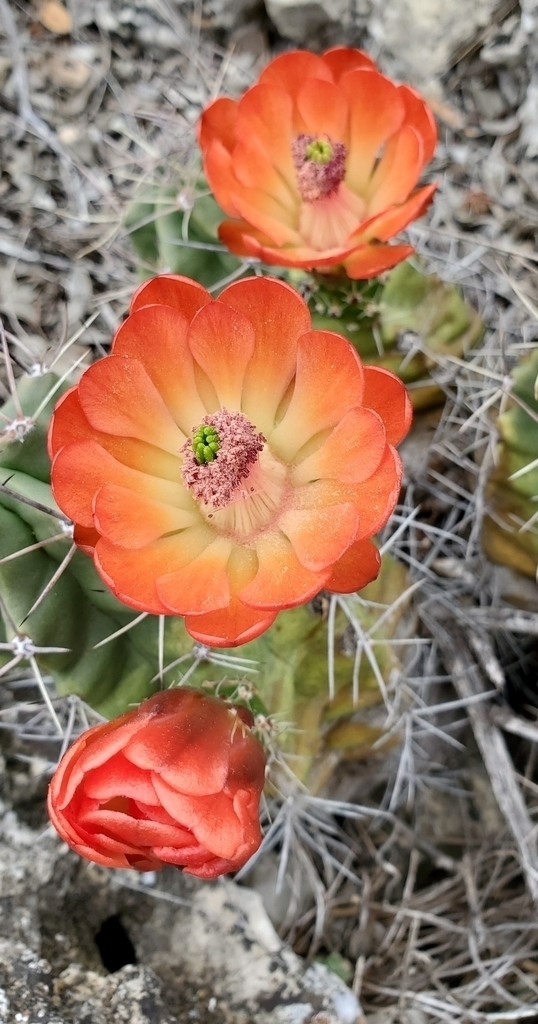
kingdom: Plantae
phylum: Tracheophyta
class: Magnoliopsida
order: Caryophyllales
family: Cactaceae
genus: Echinocereus
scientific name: Echinocereus coccineus
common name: Scarlet hedgehog cactus
